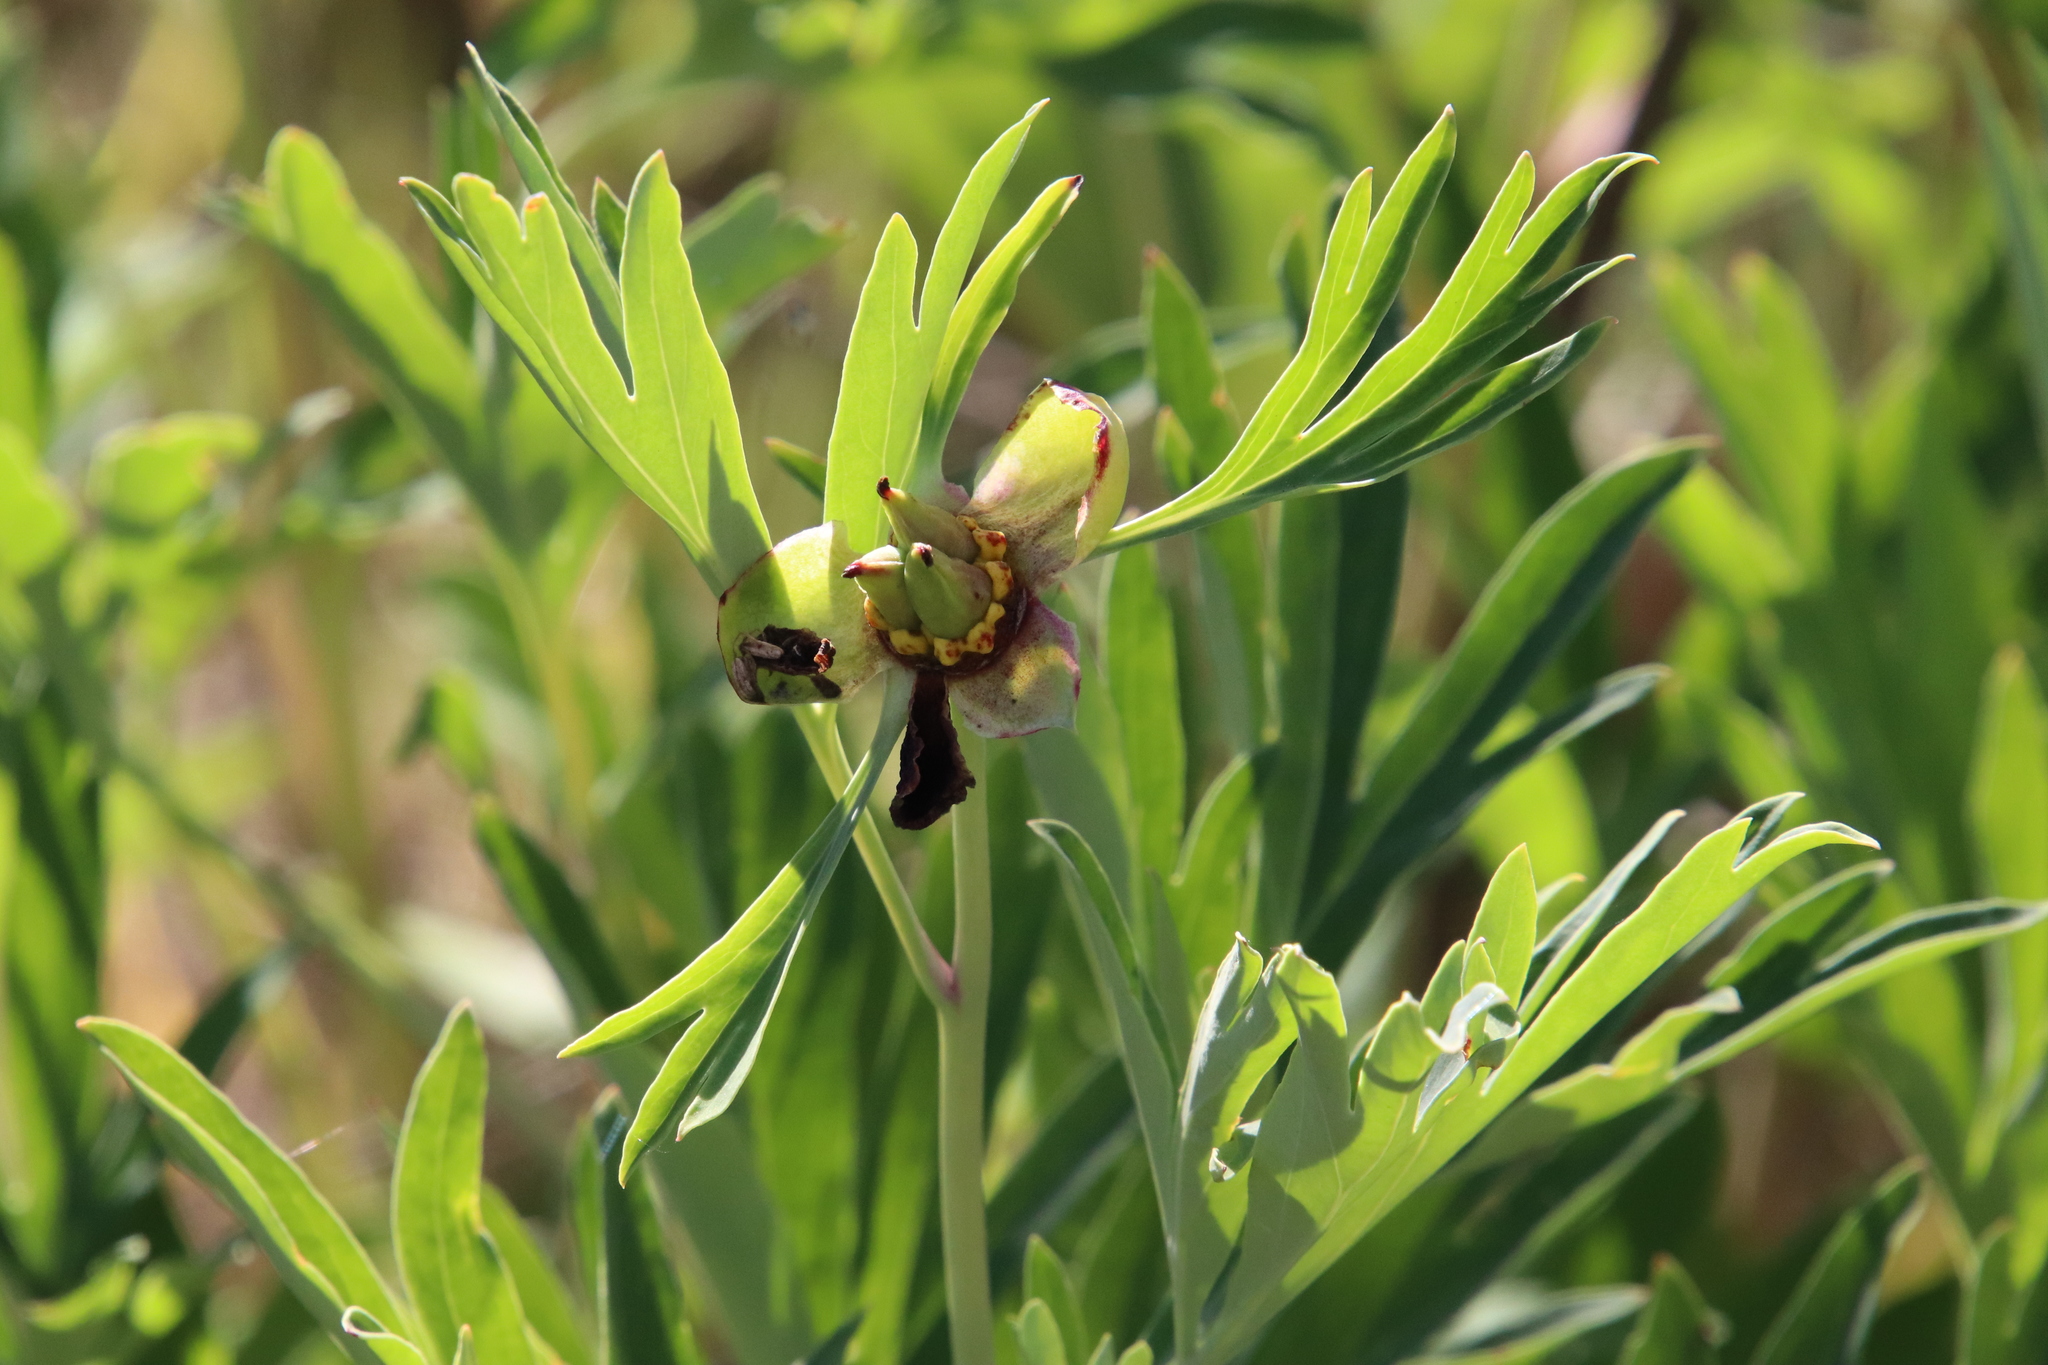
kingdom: Plantae
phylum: Tracheophyta
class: Magnoliopsida
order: Saxifragales
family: Paeoniaceae
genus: Paeonia
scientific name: Paeonia californica
